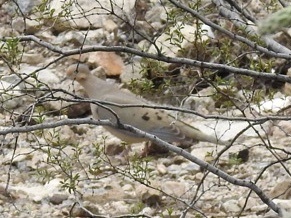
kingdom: Animalia
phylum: Chordata
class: Aves
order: Columbiformes
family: Columbidae
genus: Zenaida
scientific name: Zenaida macroura
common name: Mourning dove
